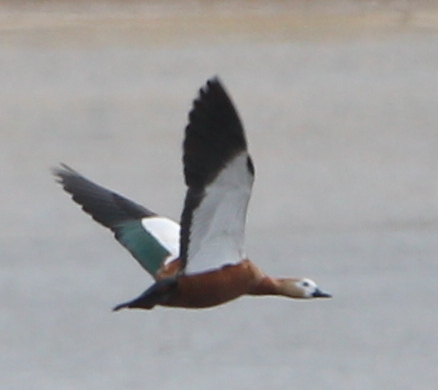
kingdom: Animalia
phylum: Chordata
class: Aves
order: Anseriformes
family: Anatidae
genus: Tadorna
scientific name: Tadorna ferruginea
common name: Ruddy shelduck
